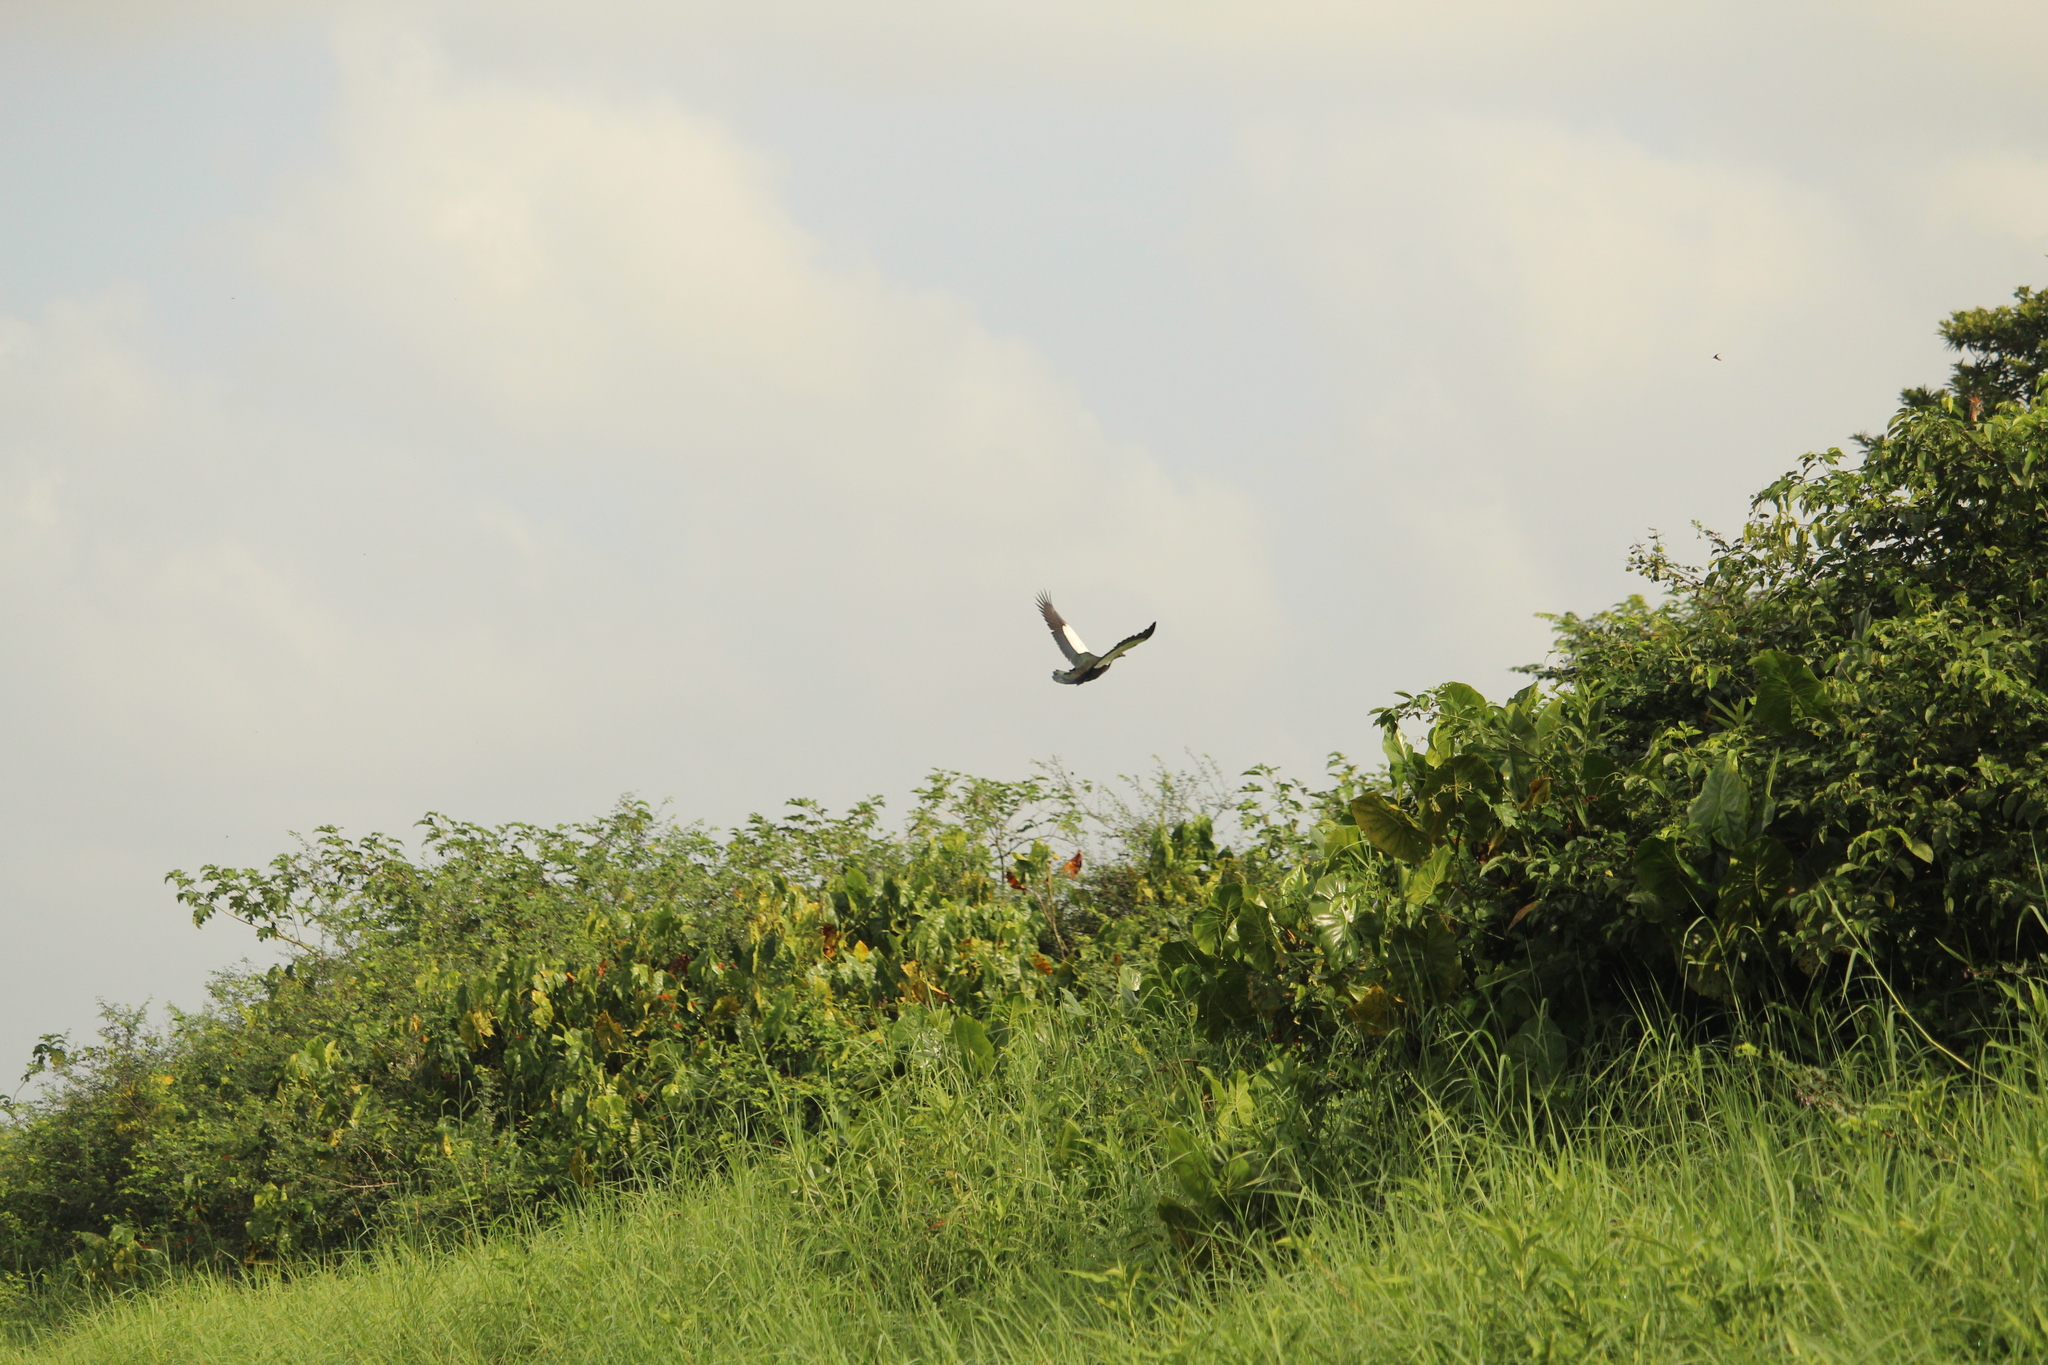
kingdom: Animalia
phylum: Chordata
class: Aves
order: Anseriformes
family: Anatidae
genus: Cairina
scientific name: Cairina moschata
